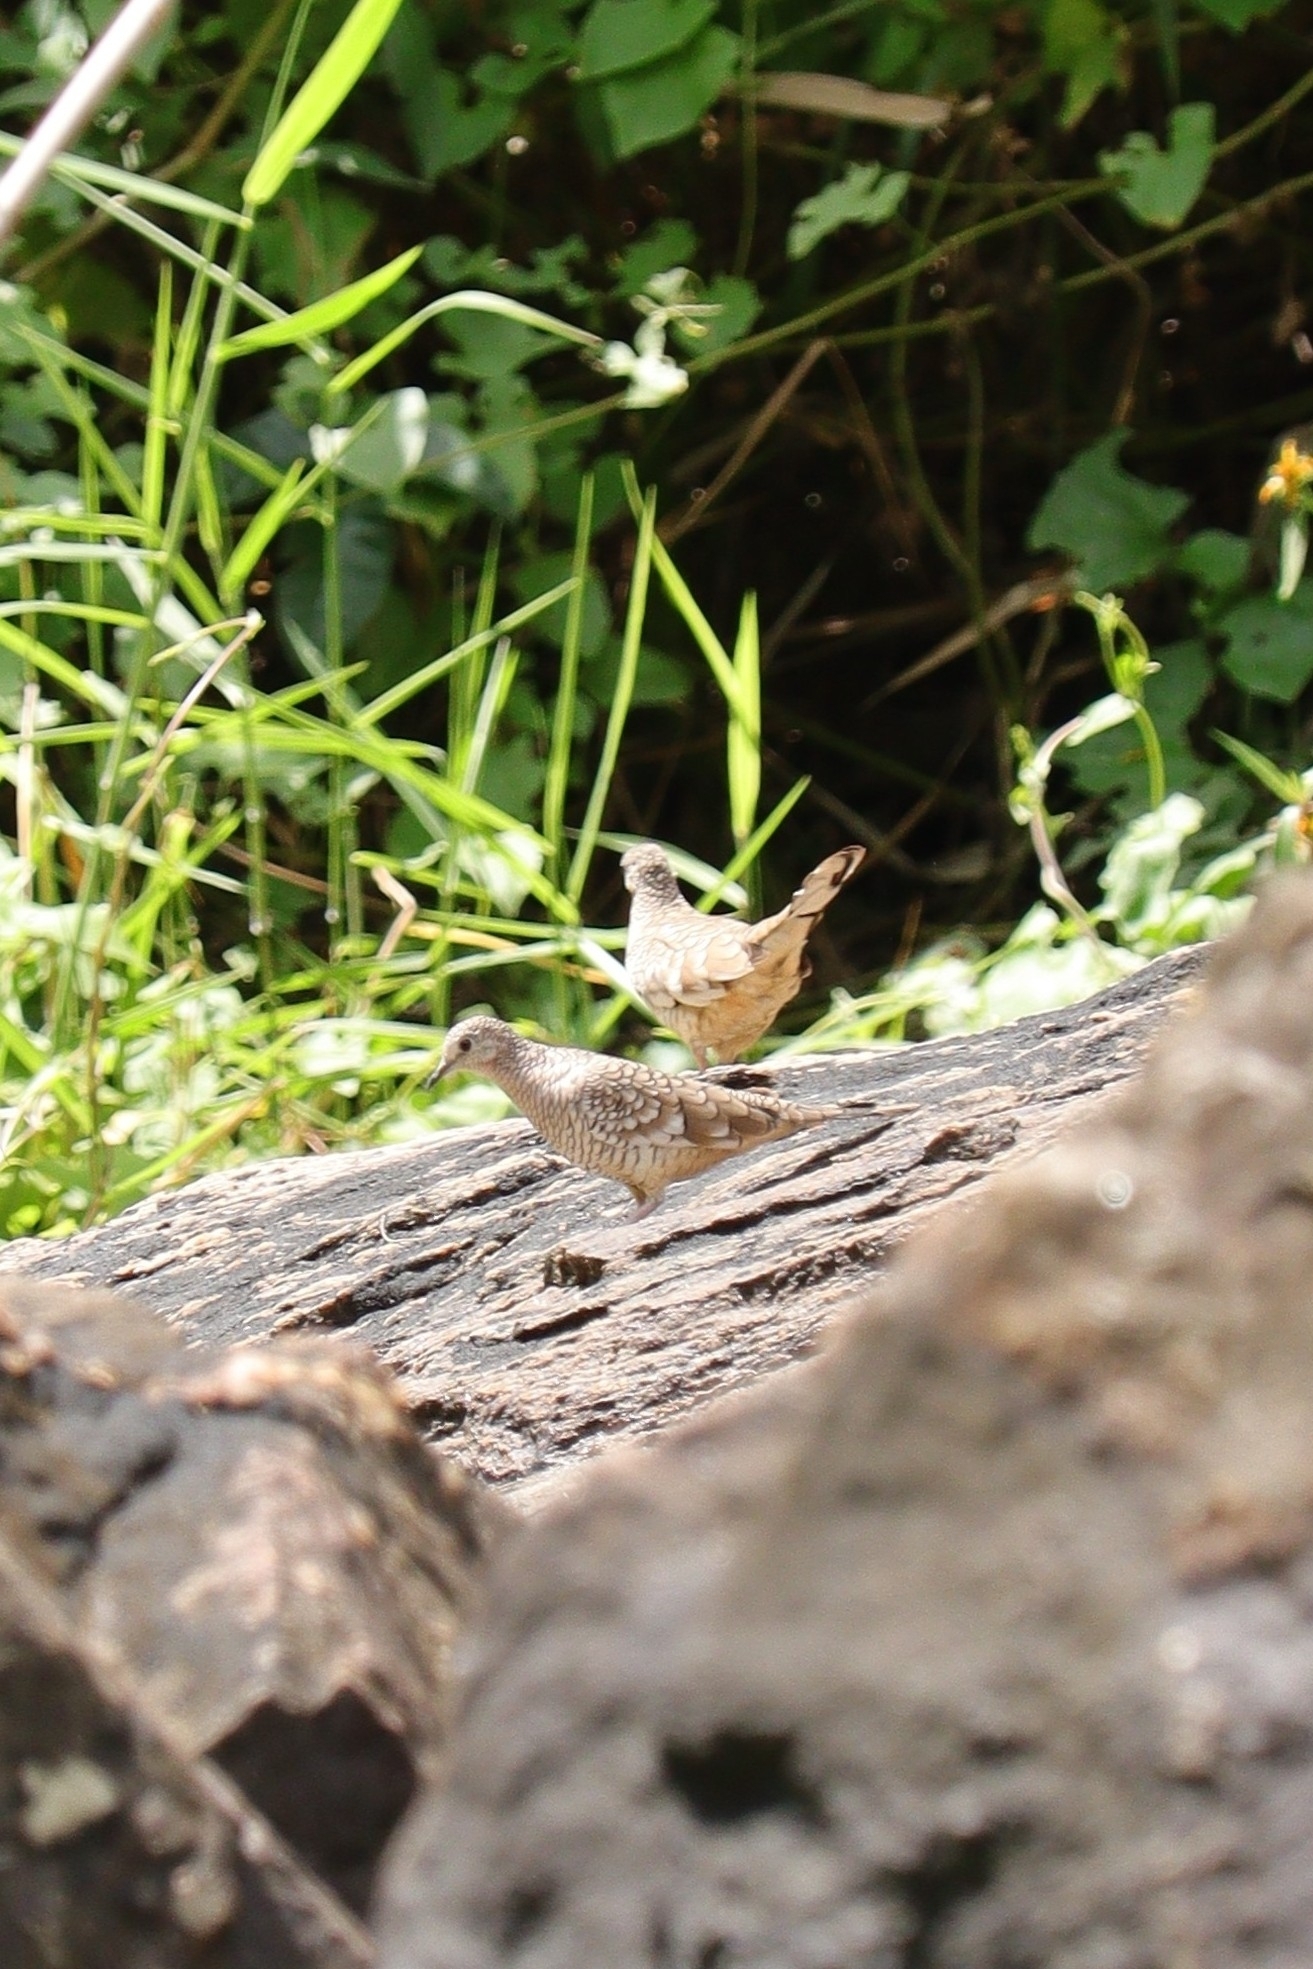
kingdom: Animalia
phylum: Chordata
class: Aves
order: Columbiformes
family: Columbidae
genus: Columbina
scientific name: Columbina squammata
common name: Scaled dove
